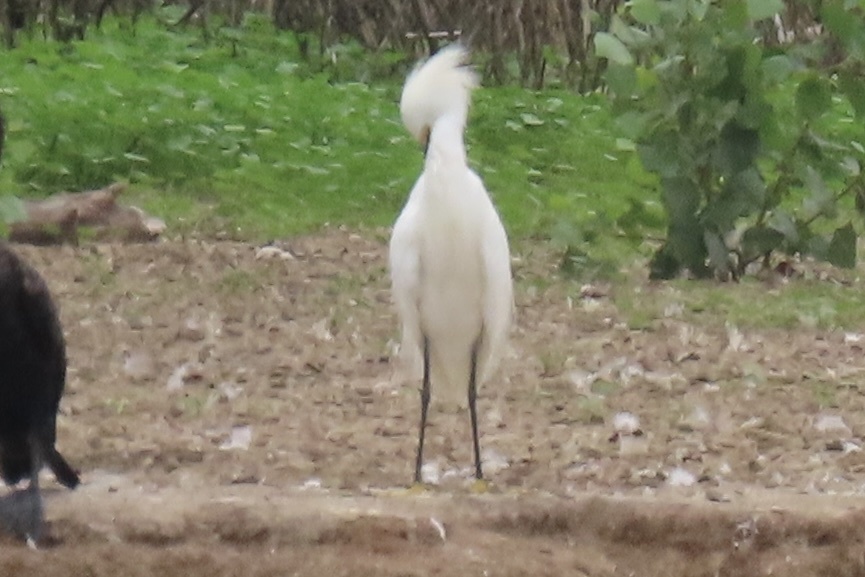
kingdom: Animalia
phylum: Chordata
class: Aves
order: Pelecaniformes
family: Ardeidae
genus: Egretta
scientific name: Egretta thula
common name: Snowy egret
